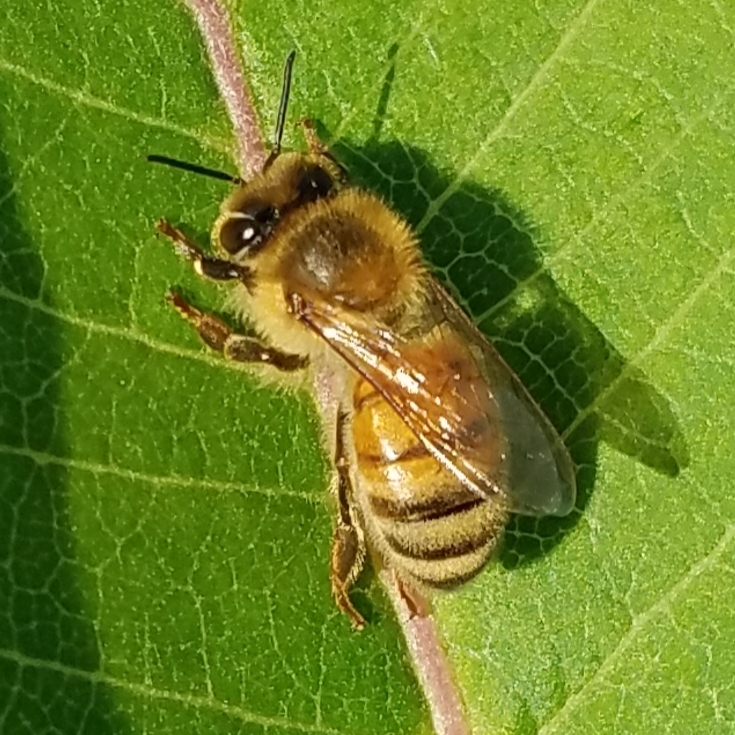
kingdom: Animalia
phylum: Arthropoda
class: Insecta
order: Hymenoptera
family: Apidae
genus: Apis
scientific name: Apis mellifera
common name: Honey bee
